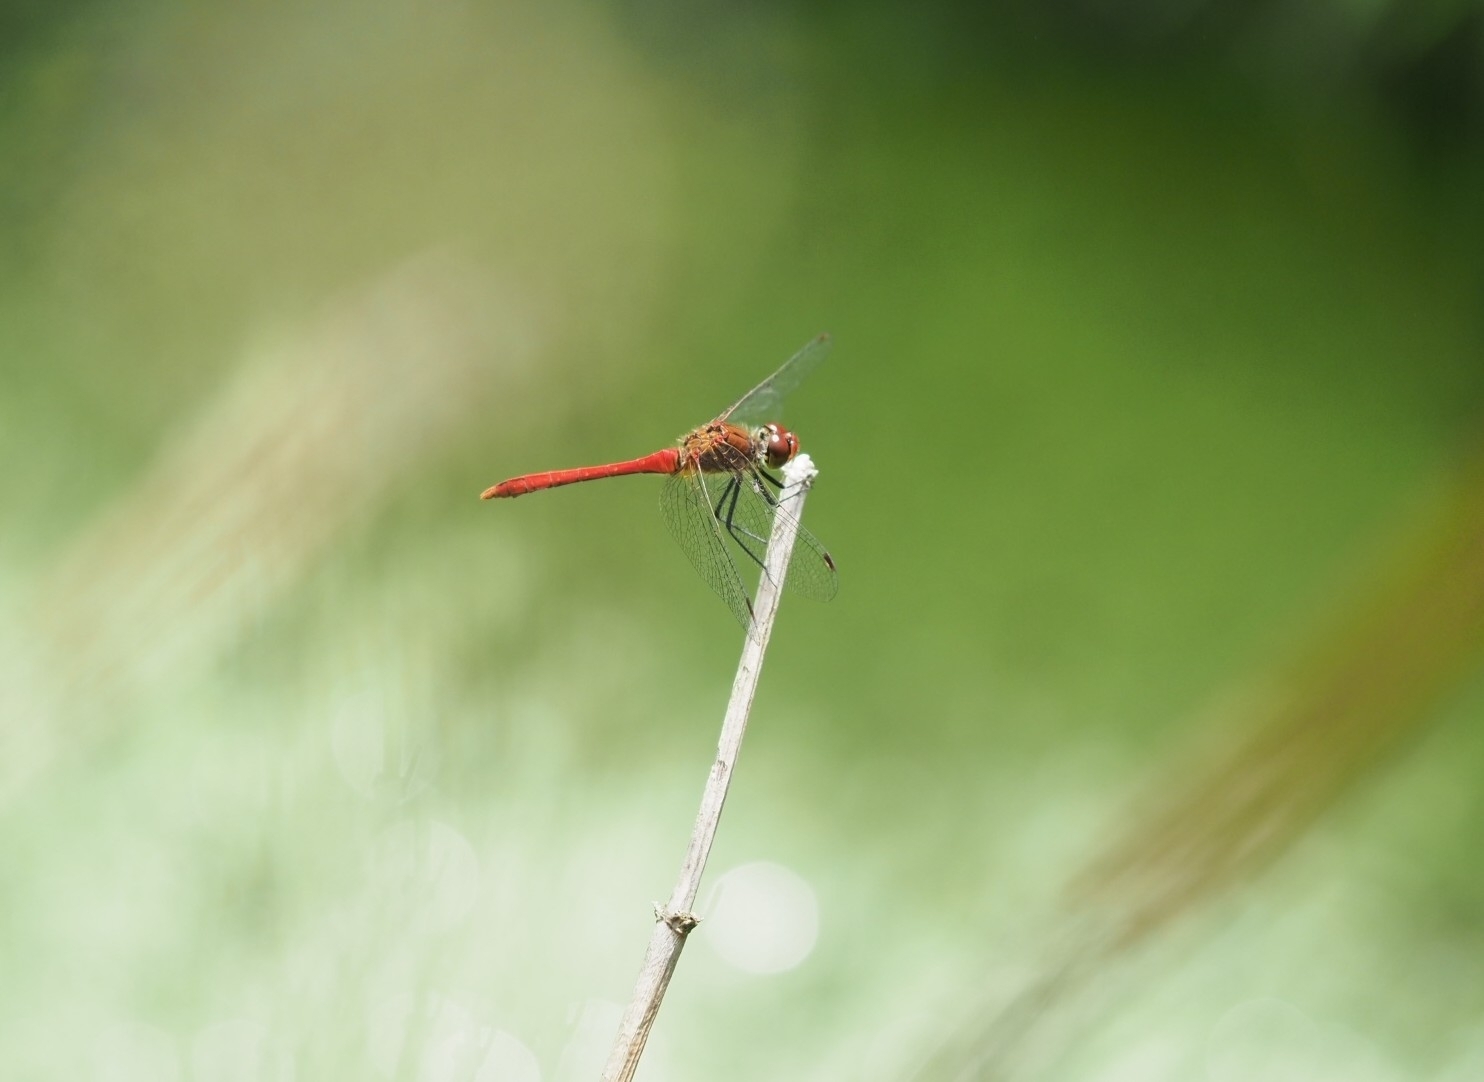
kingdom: Animalia
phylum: Arthropoda
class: Insecta
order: Odonata
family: Libellulidae
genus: Sympetrum
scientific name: Sympetrum sanguineum
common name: Ruddy darter
